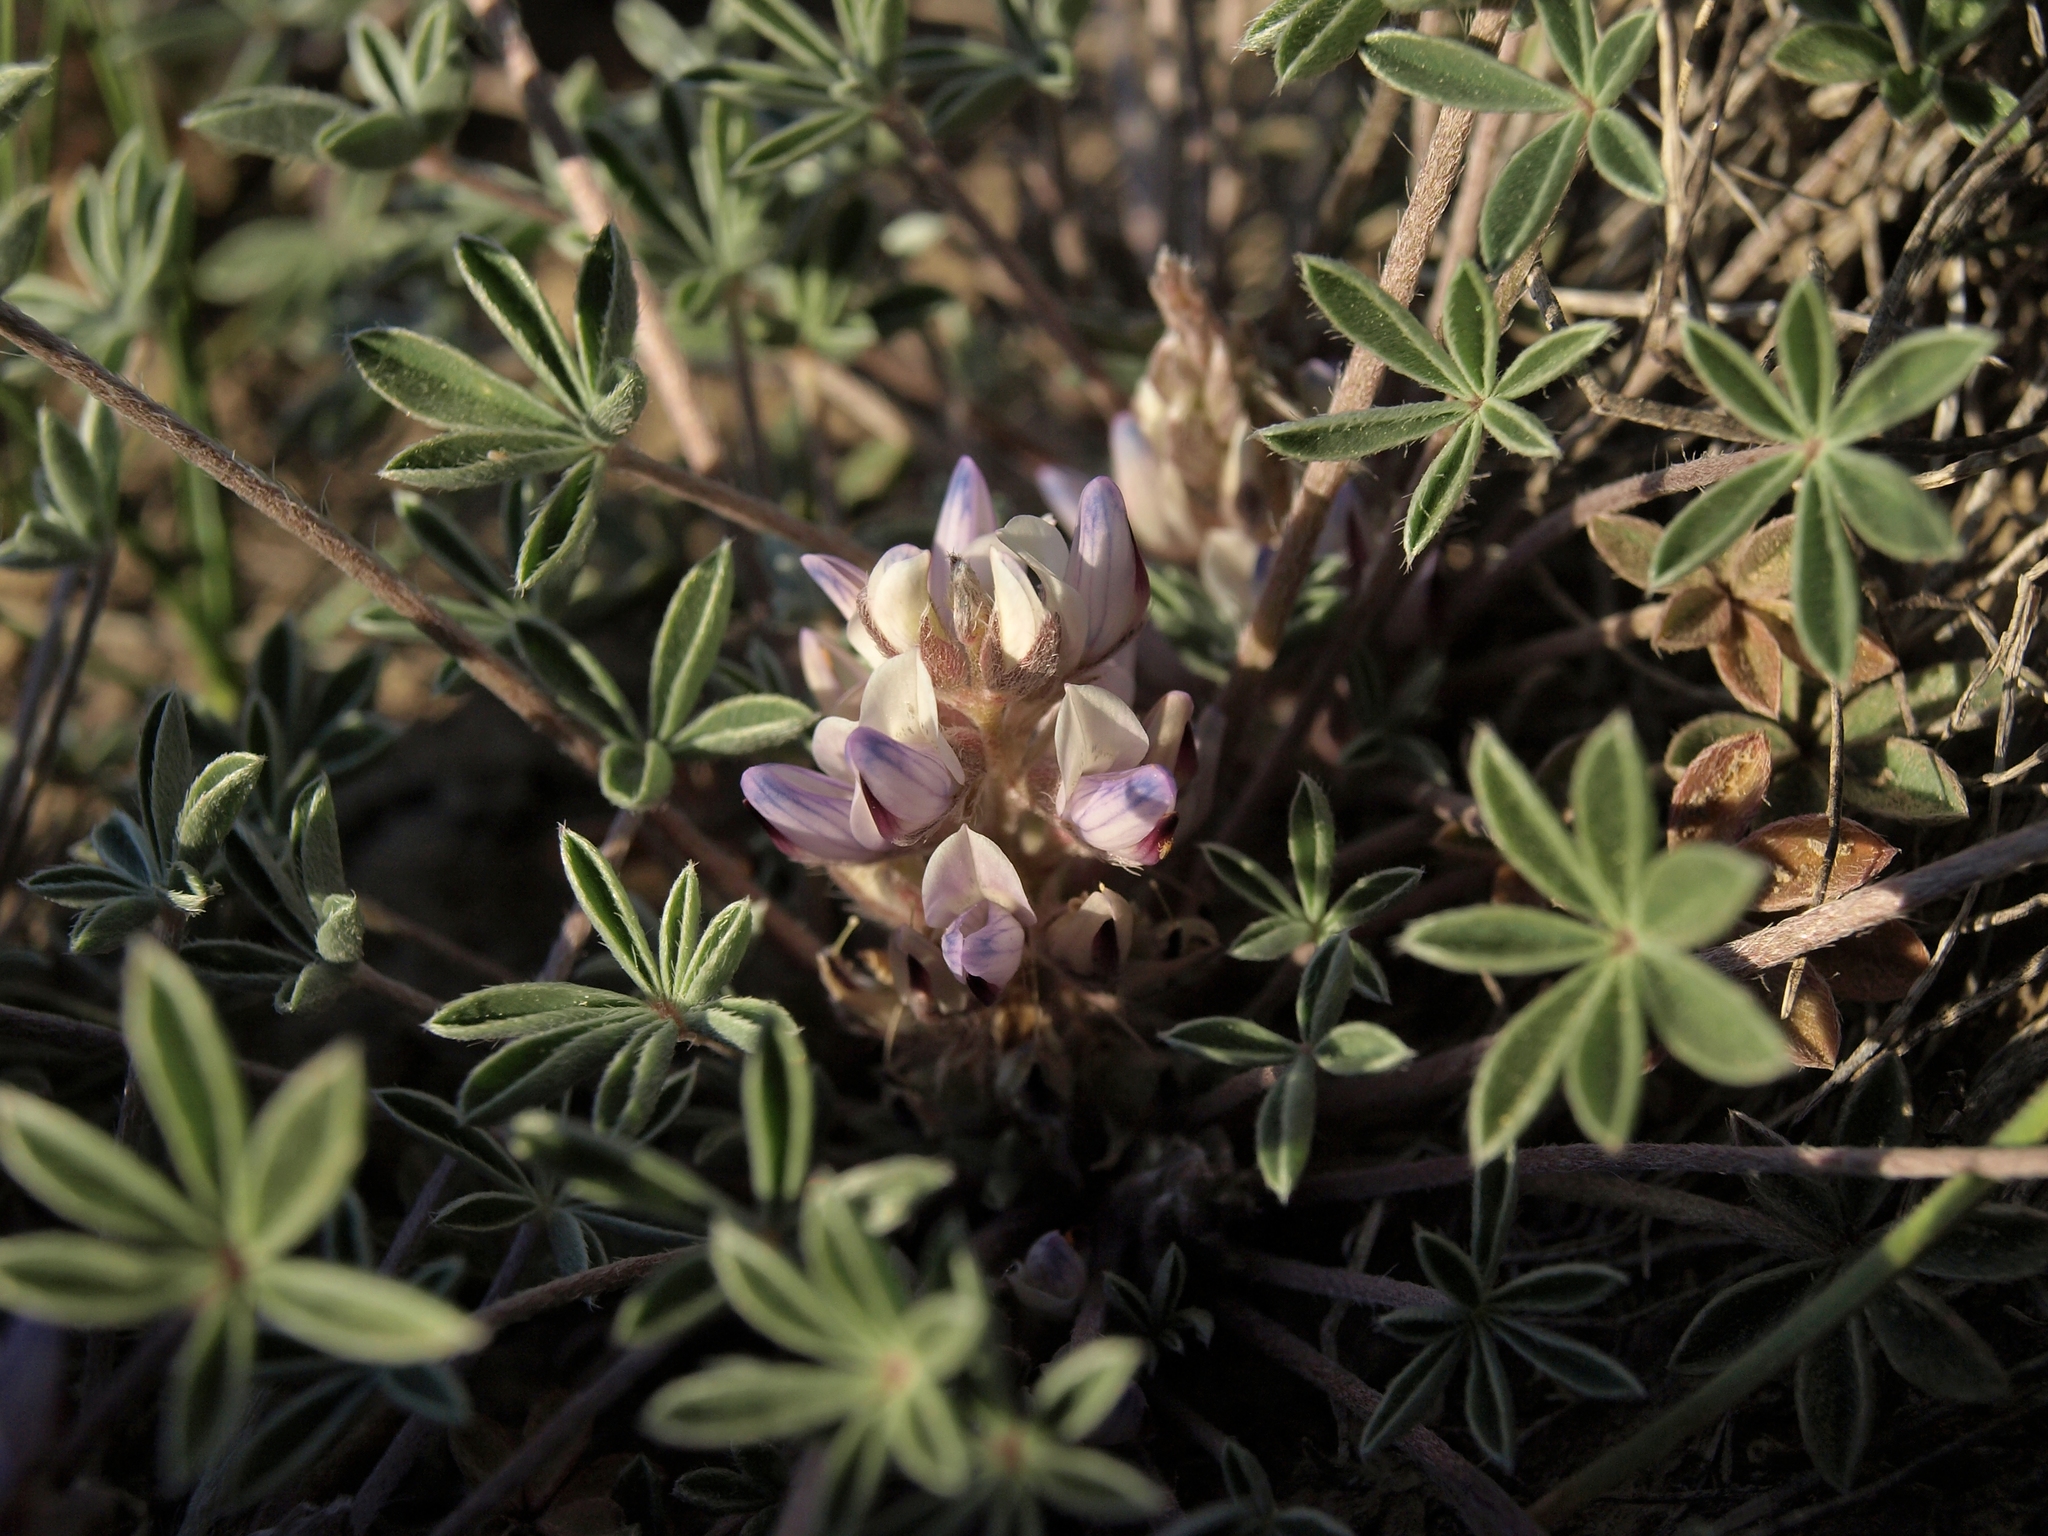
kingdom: Plantae
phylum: Tracheophyta
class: Magnoliopsida
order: Fabales
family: Fabaceae
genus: Lupinus
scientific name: Lupinus caespitosus
